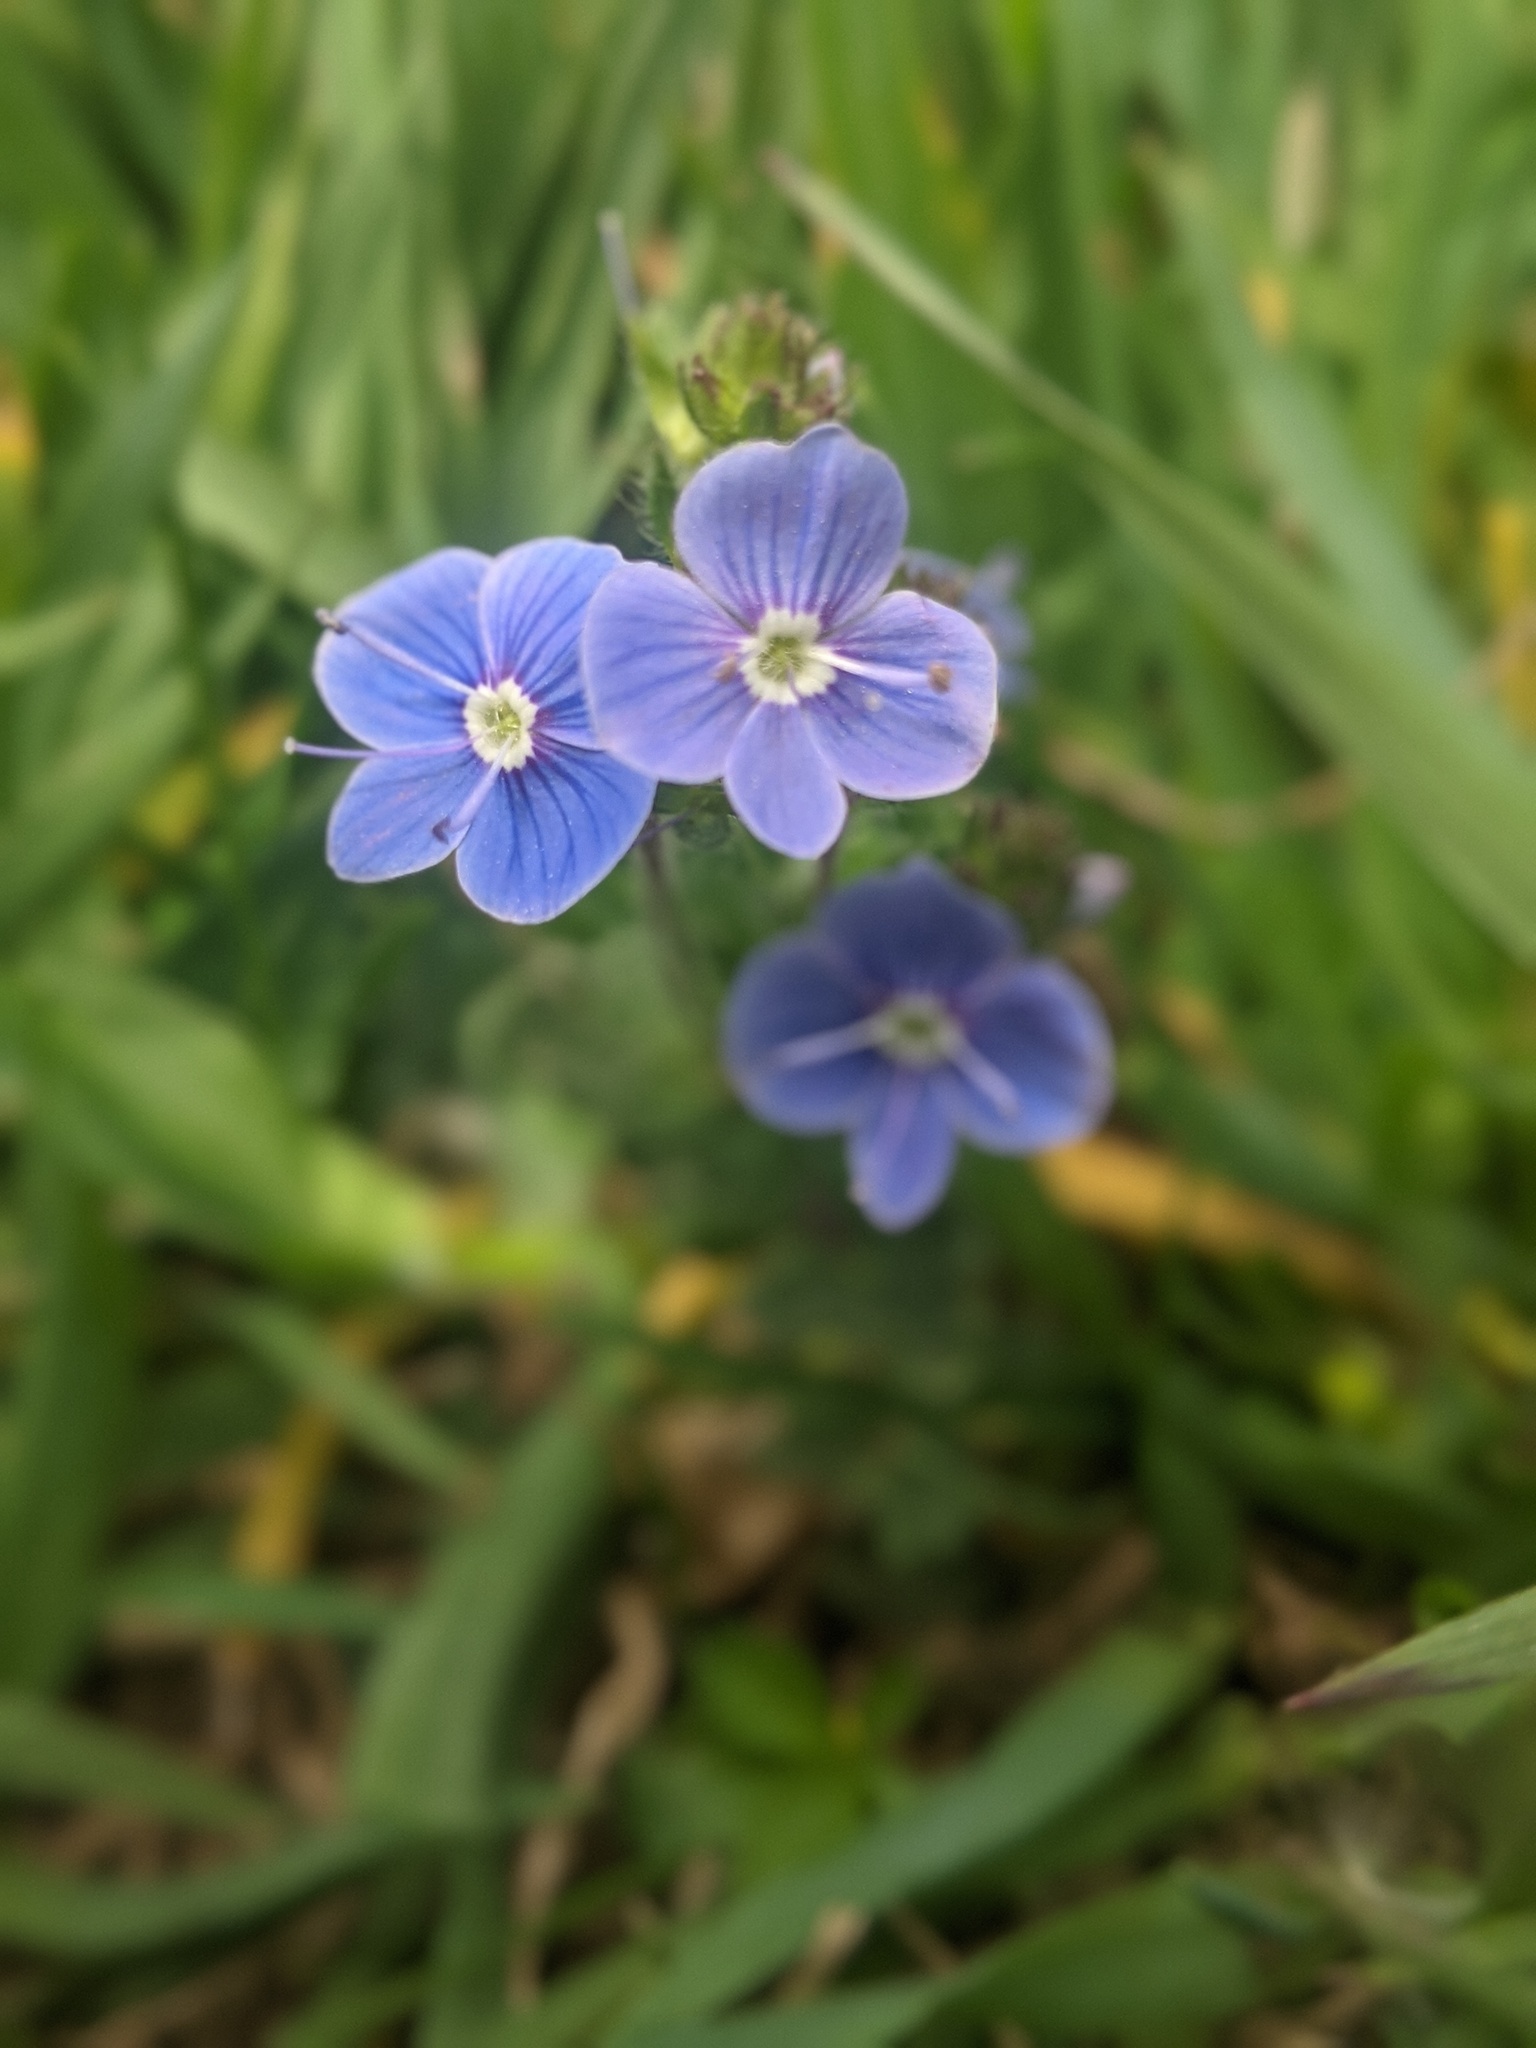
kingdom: Plantae
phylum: Tracheophyta
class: Magnoliopsida
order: Lamiales
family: Plantaginaceae
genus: Veronica
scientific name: Veronica chamaedrys
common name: Germander speedwell
